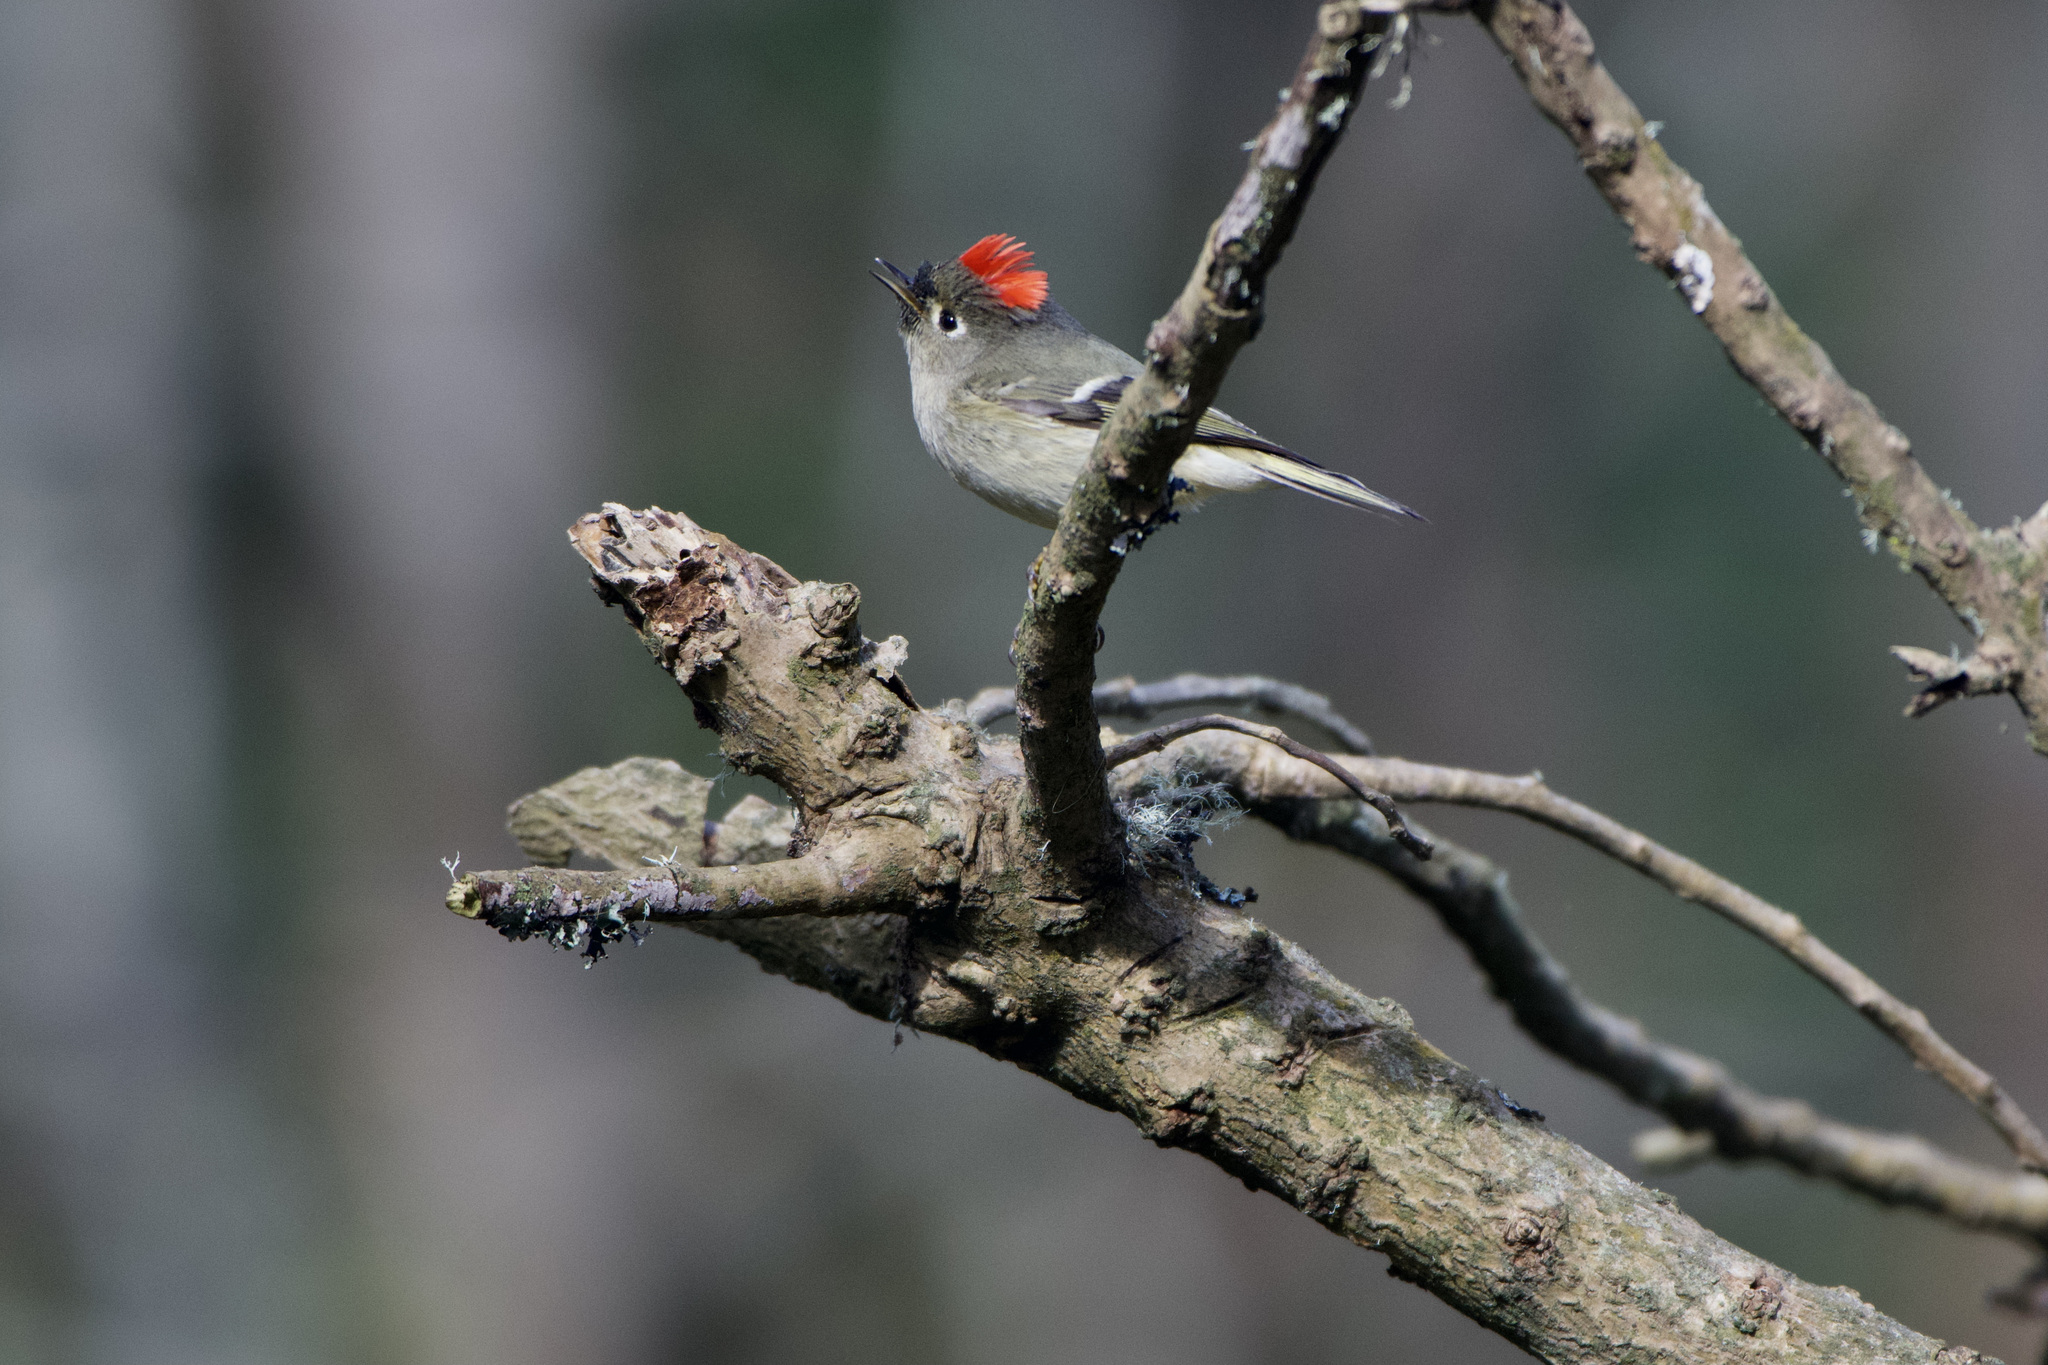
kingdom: Animalia
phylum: Chordata
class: Aves
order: Passeriformes
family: Regulidae
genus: Regulus
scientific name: Regulus calendula
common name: Ruby-crowned kinglet
